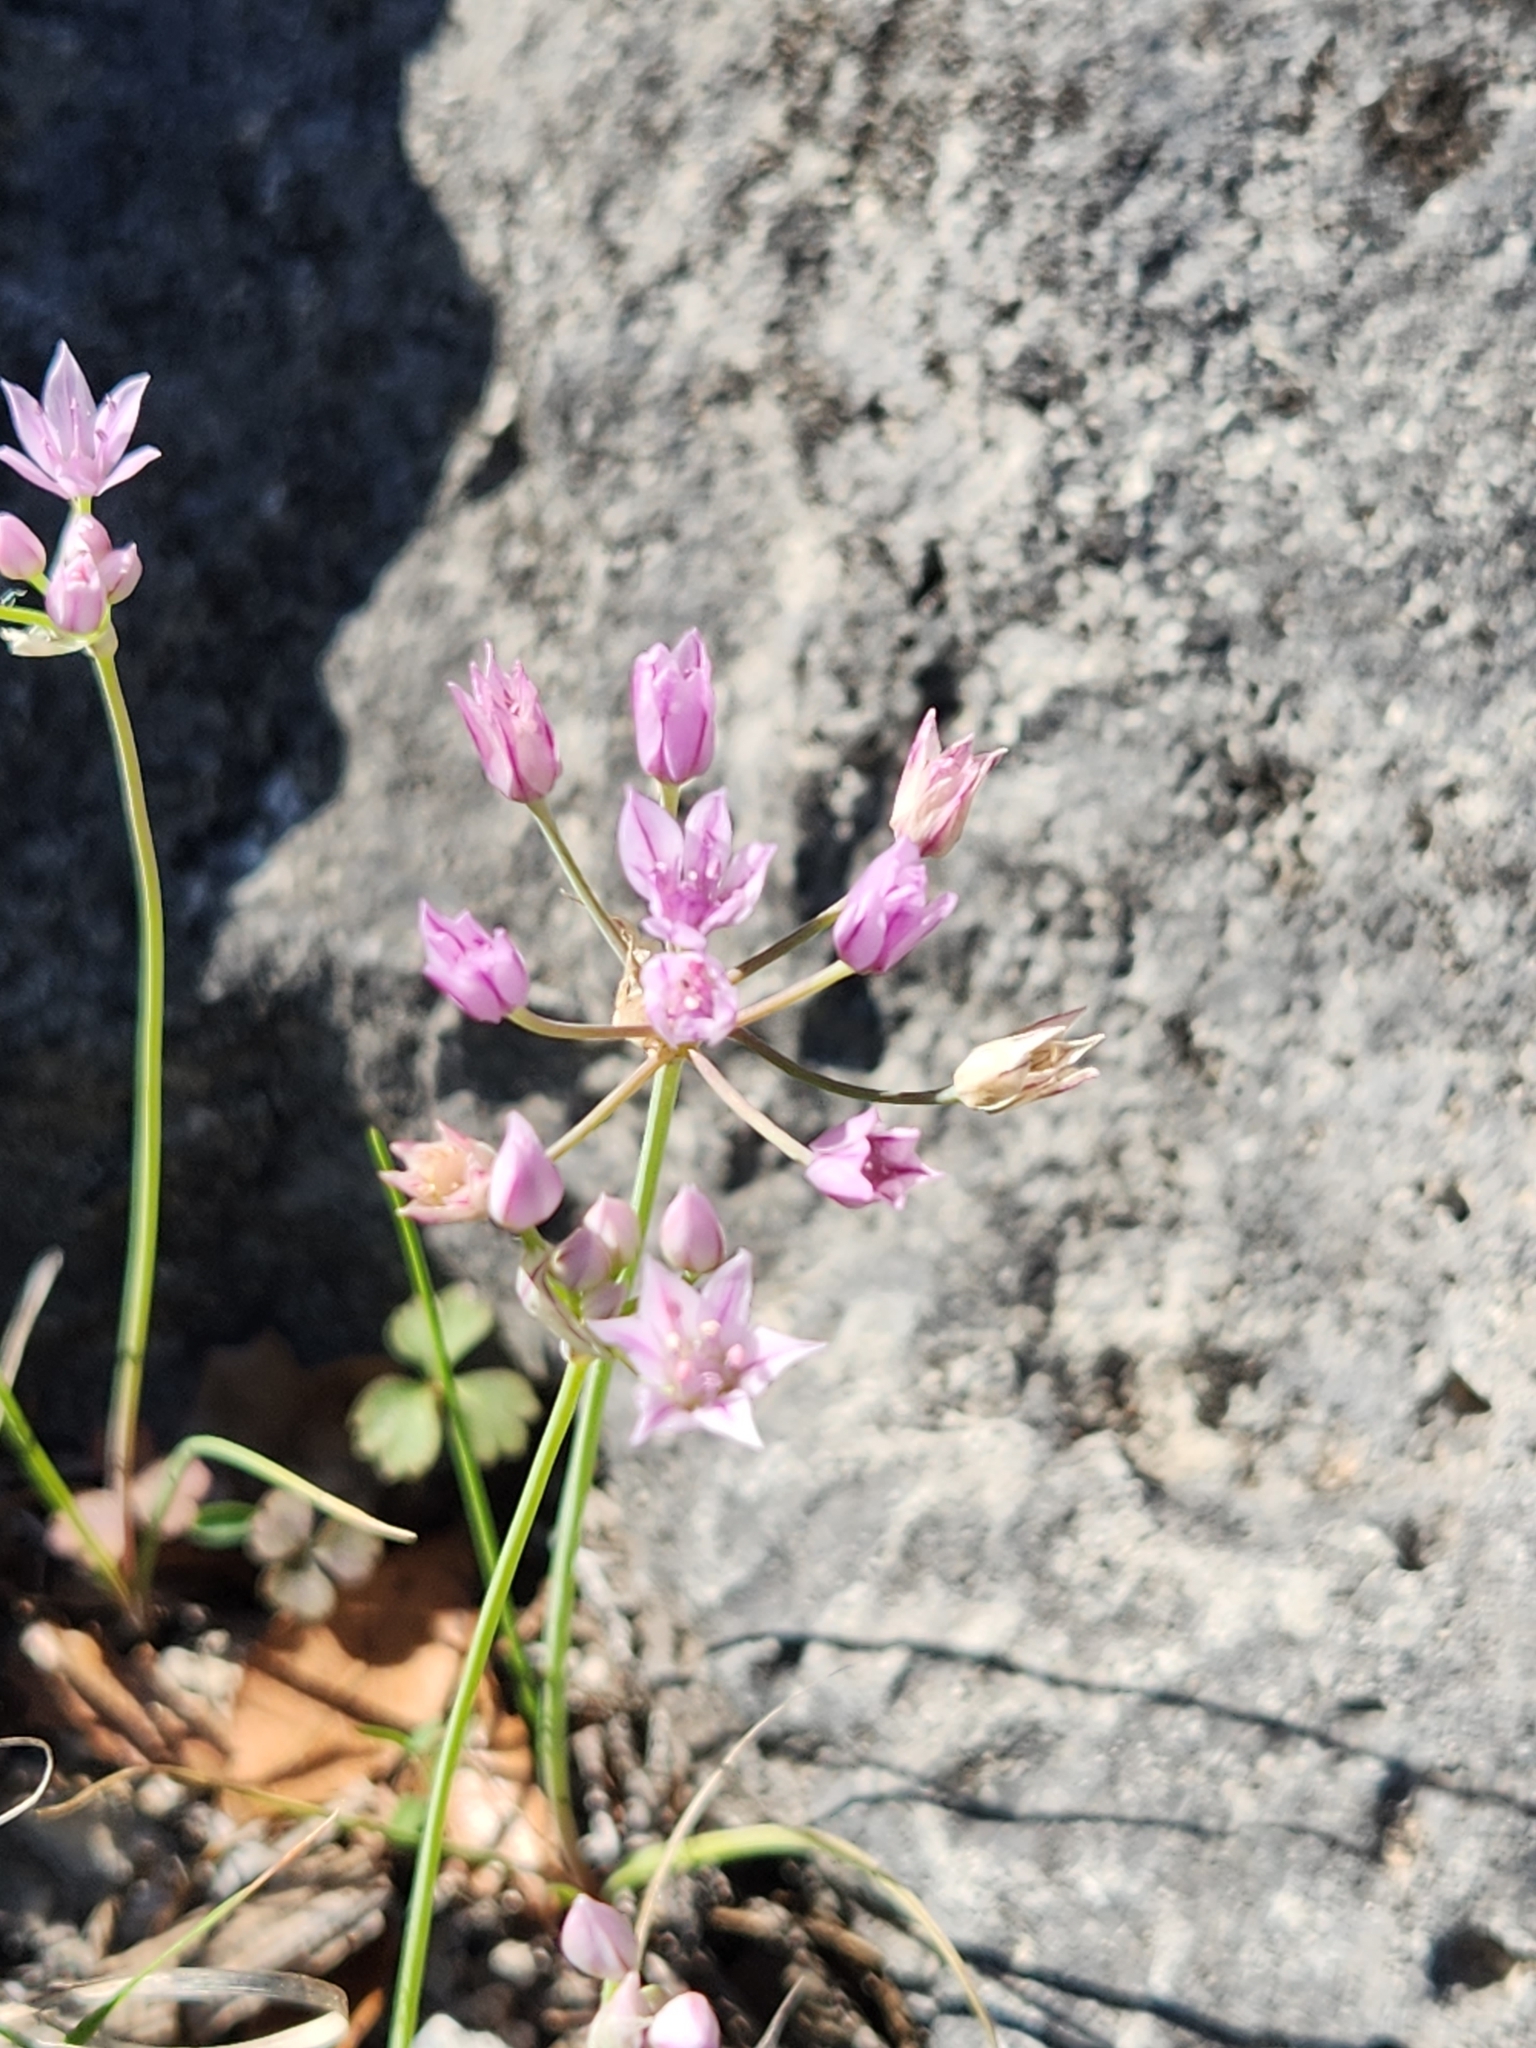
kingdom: Plantae
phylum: Tracheophyta
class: Liliopsida
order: Asparagales
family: Amaryllidaceae
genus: Allium
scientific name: Allium drummondii
